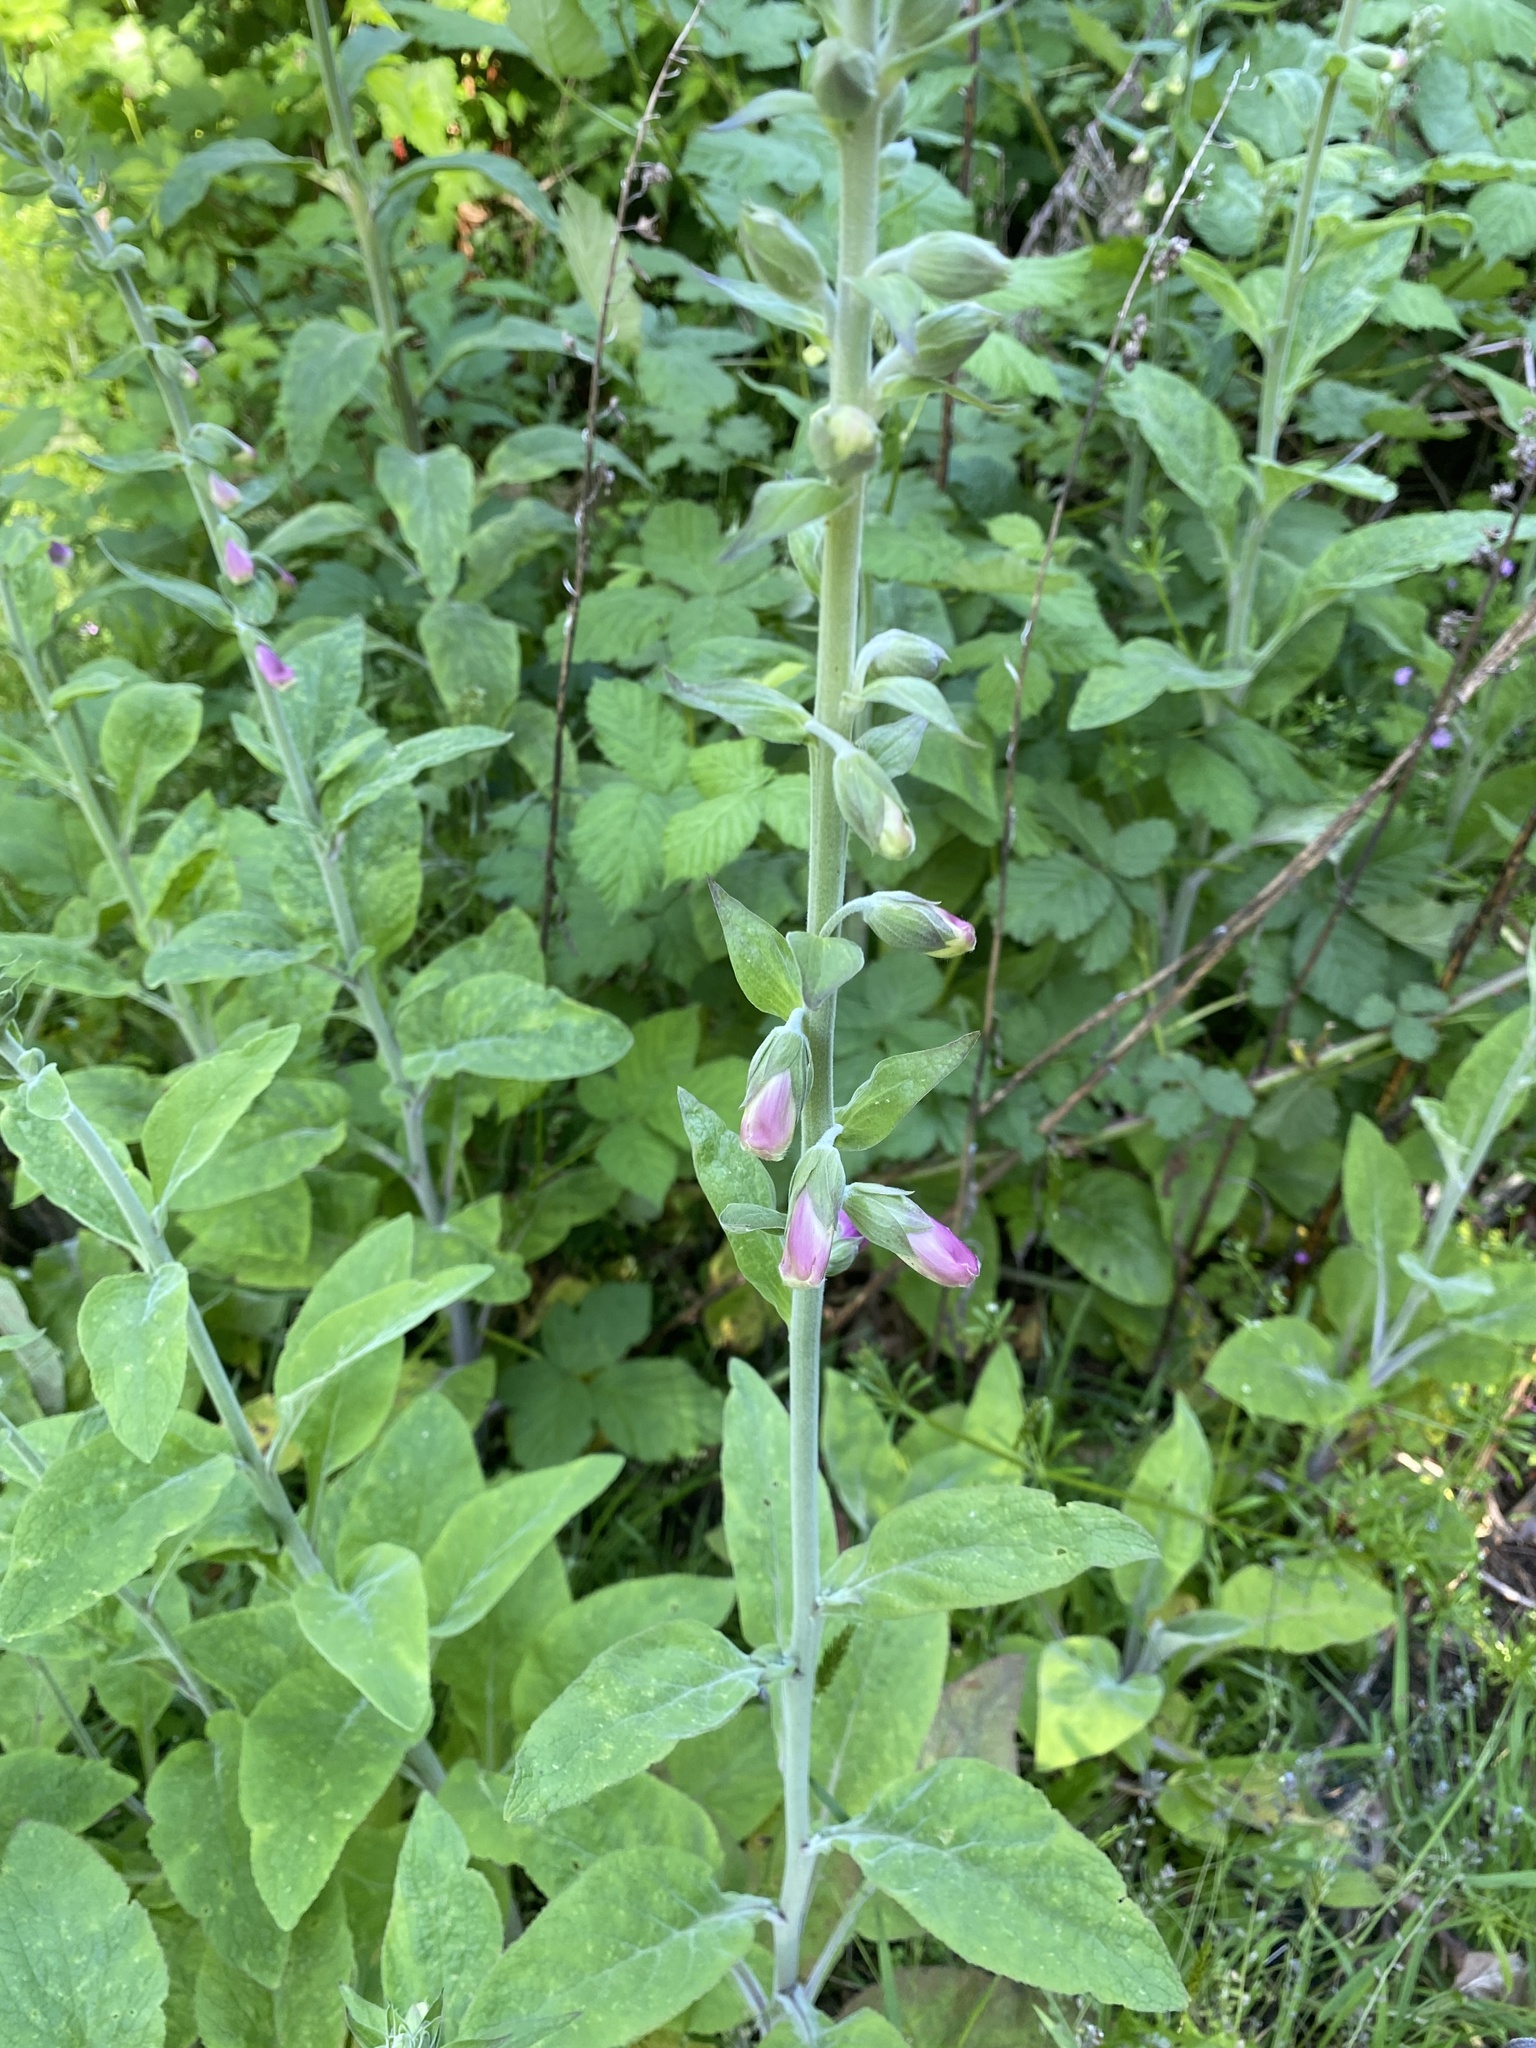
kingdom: Plantae
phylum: Tracheophyta
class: Magnoliopsida
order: Lamiales
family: Plantaginaceae
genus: Digitalis
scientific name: Digitalis purpurea
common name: Foxglove
